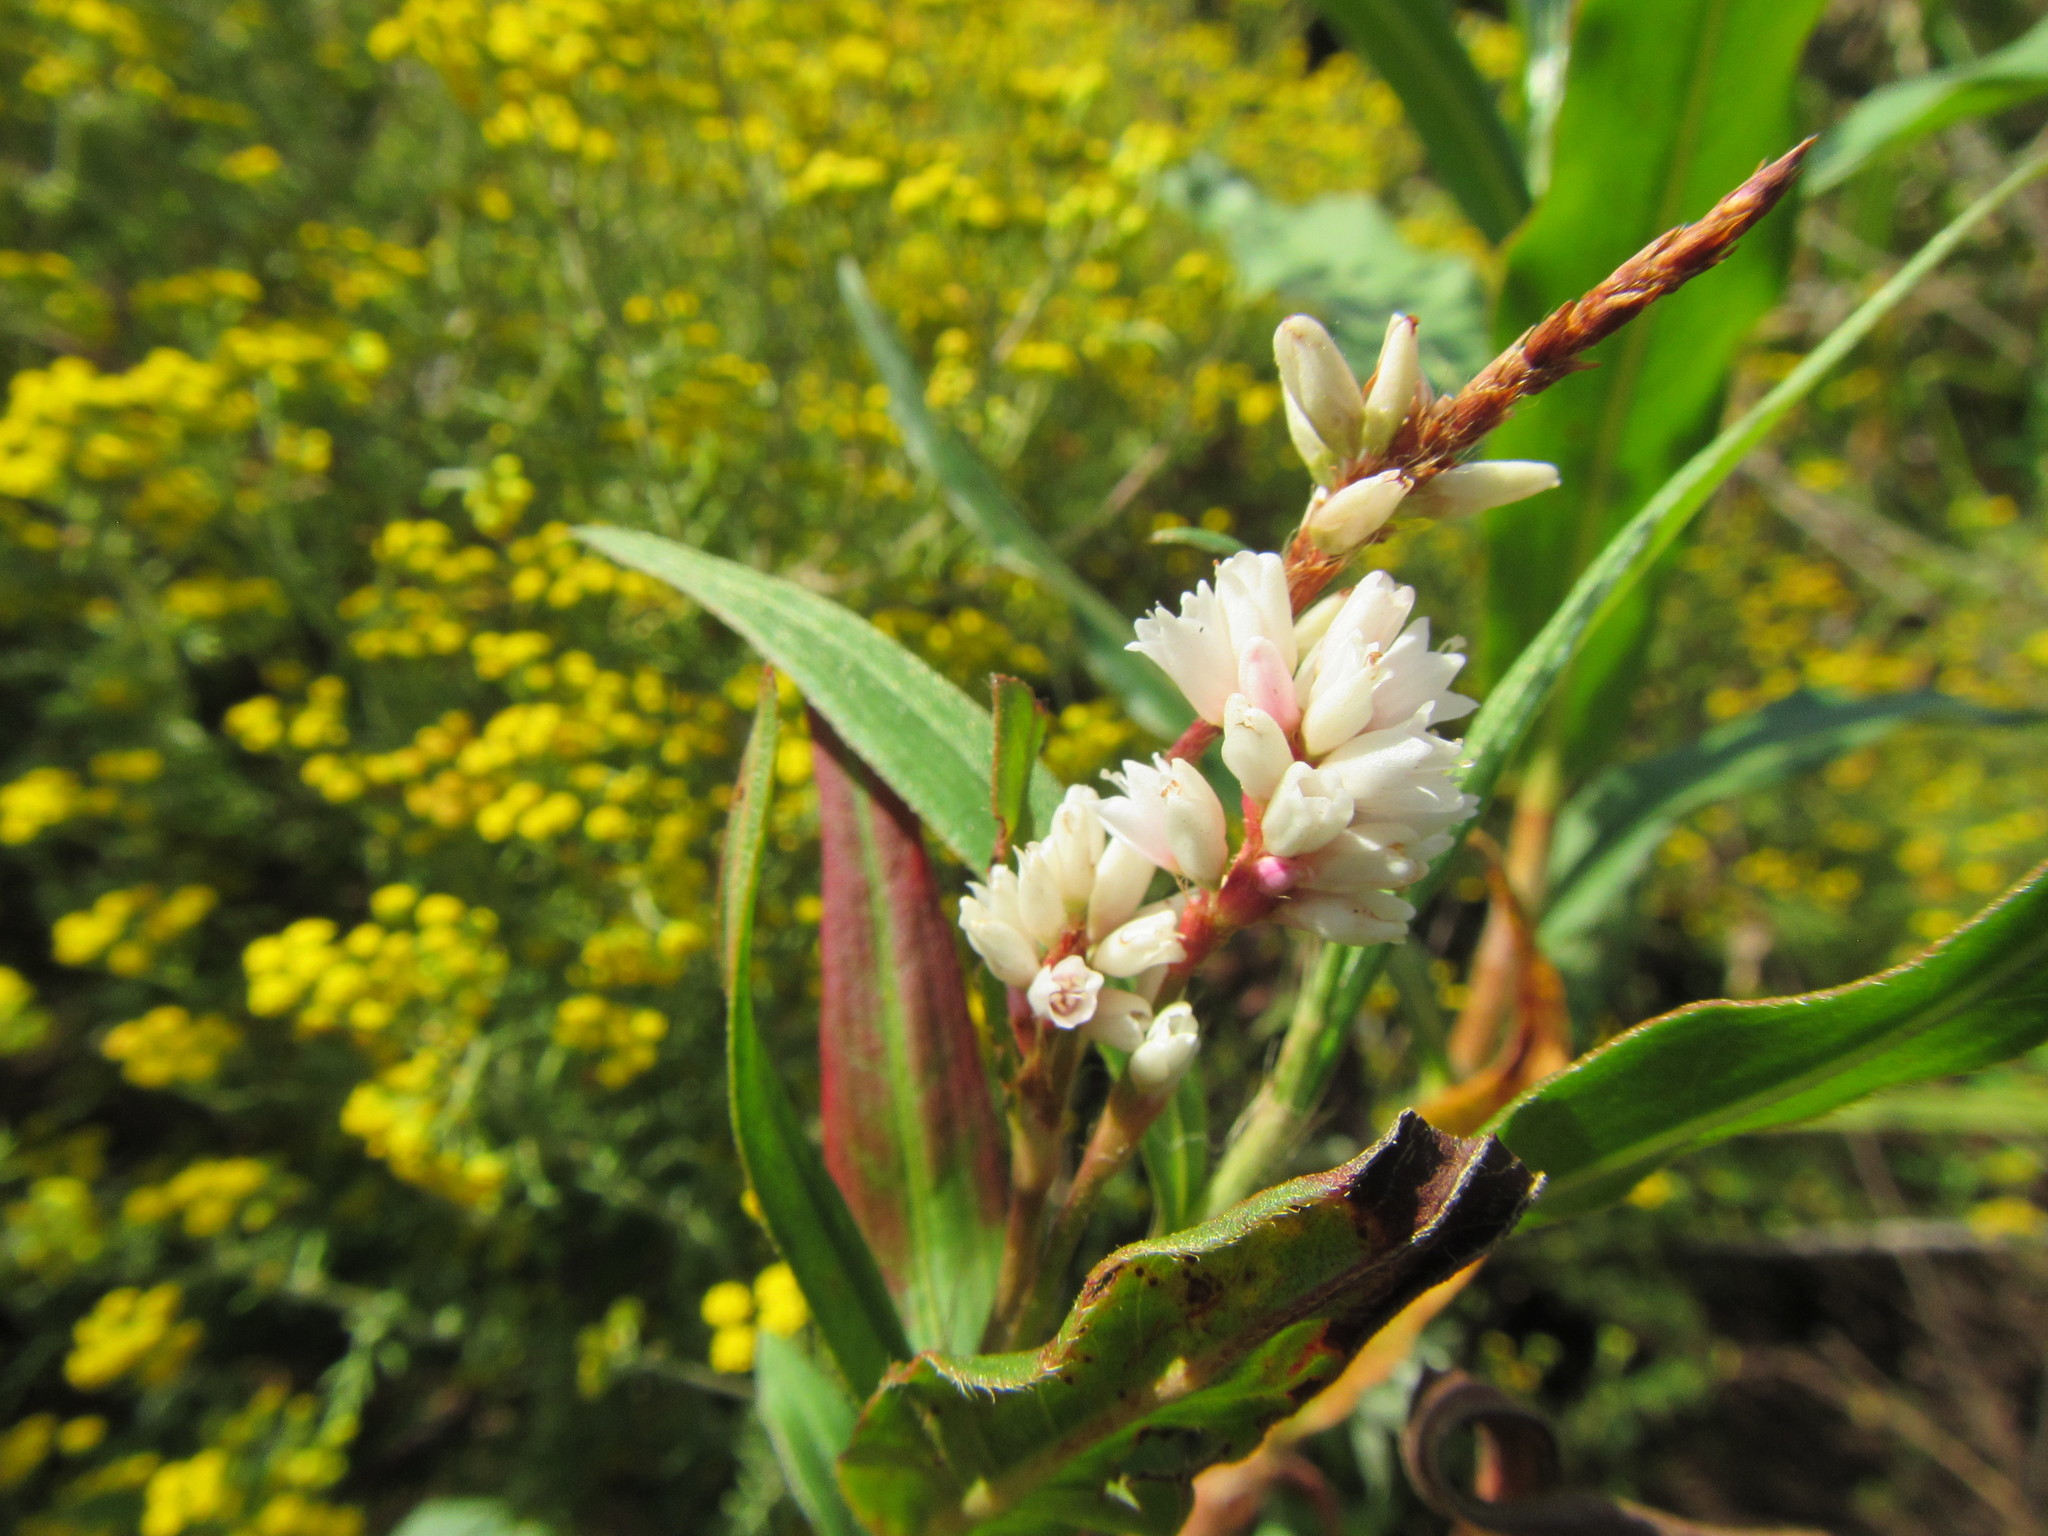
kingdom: Plantae
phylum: Tracheophyta
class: Magnoliopsida
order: Caryophyllales
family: Polygonaceae
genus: Persicaria
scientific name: Persicaria madagascariensis
